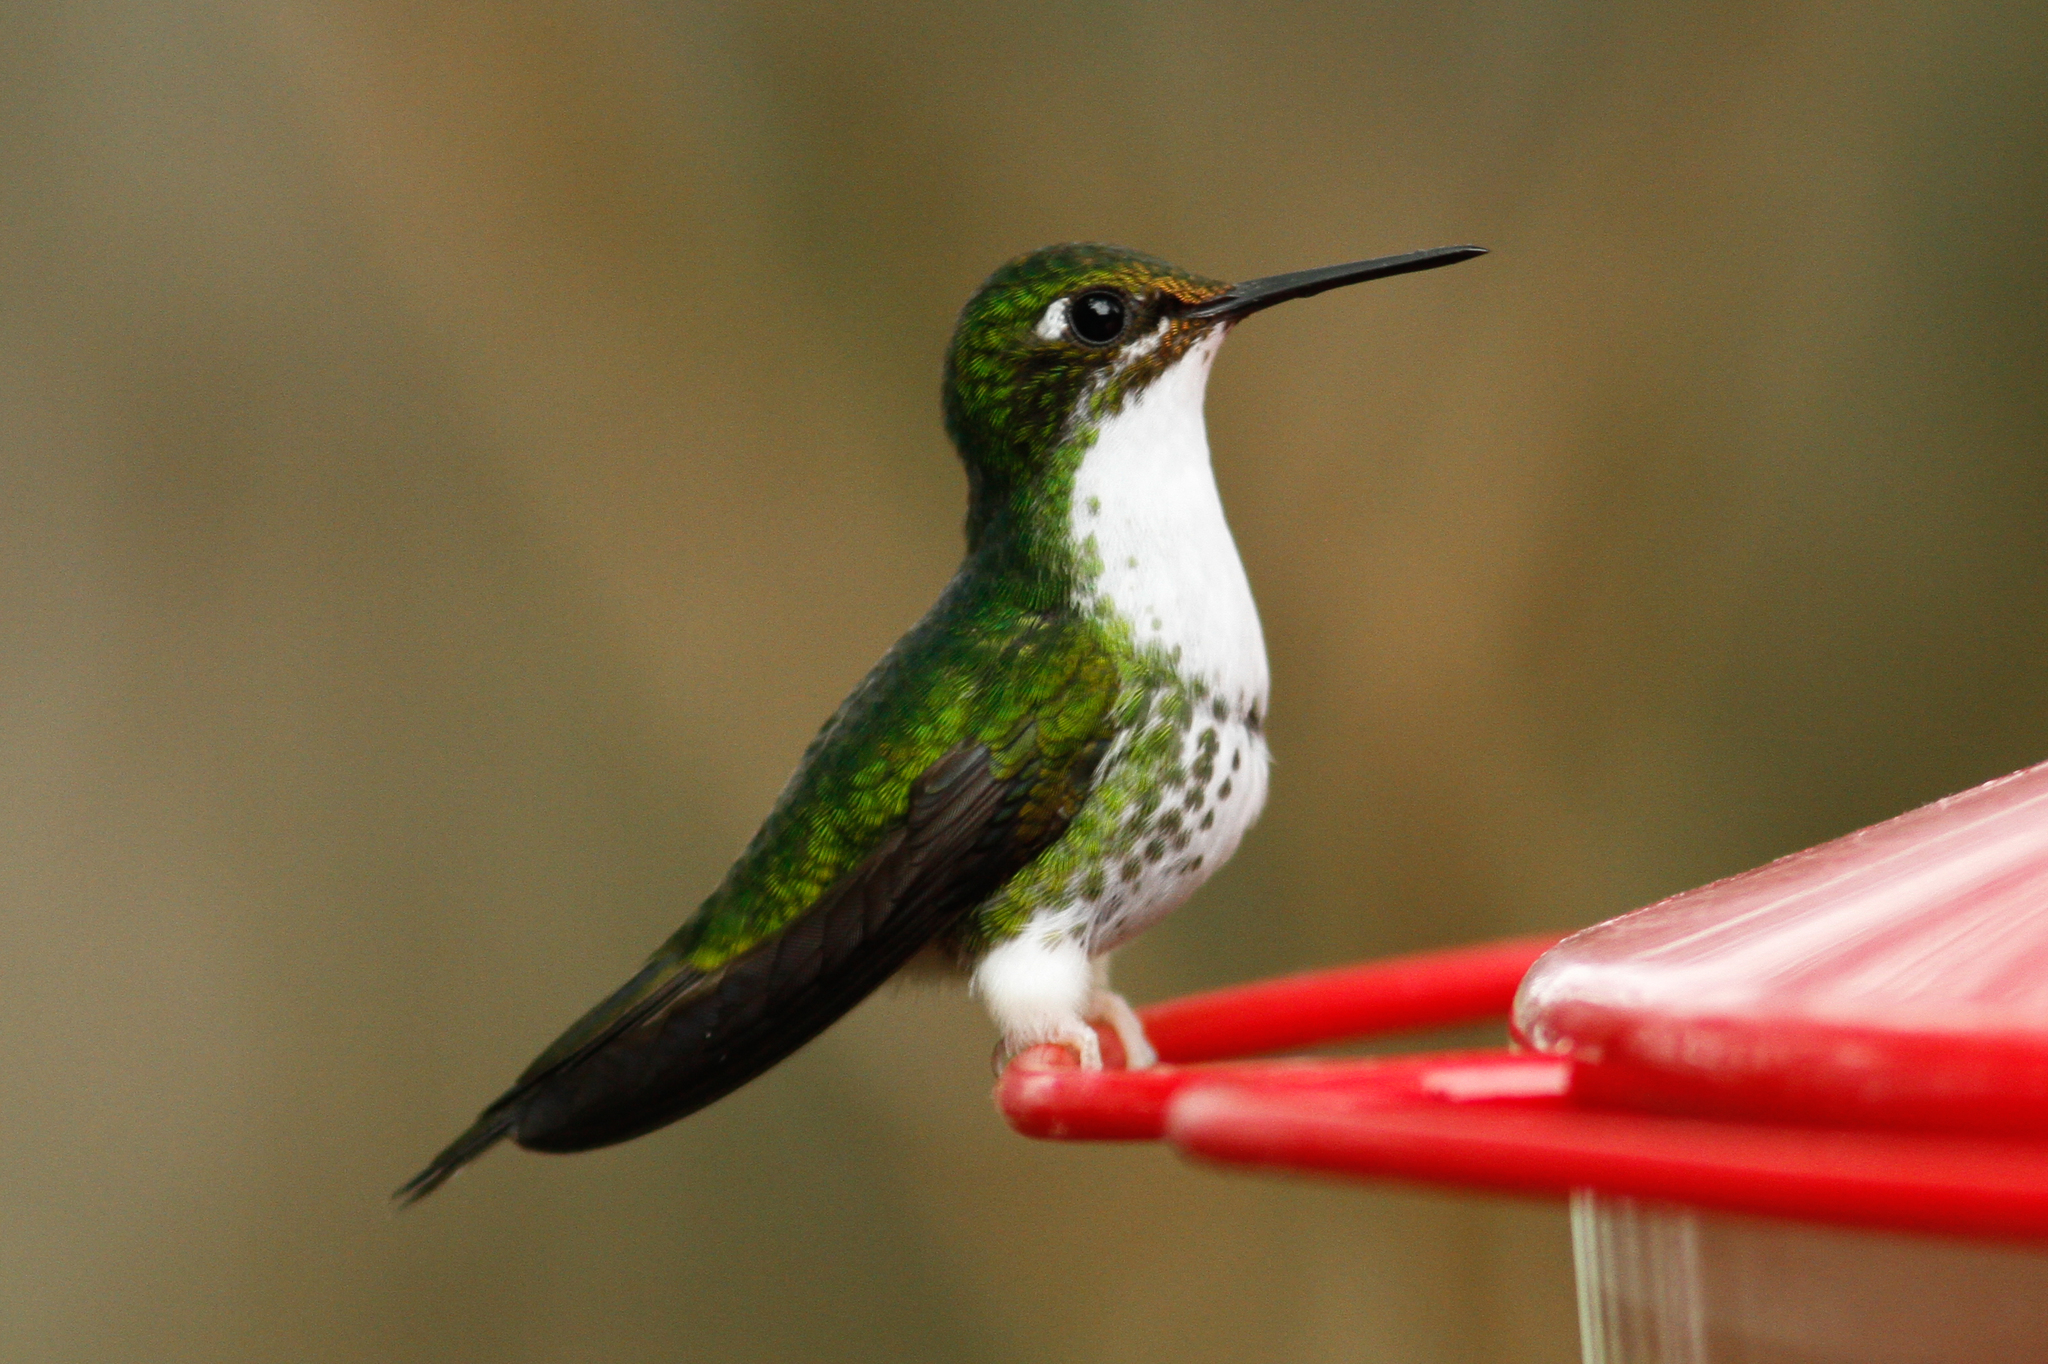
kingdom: Animalia
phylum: Chordata
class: Aves
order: Apodiformes
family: Trochilidae
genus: Ocreatus
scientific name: Ocreatus underwoodii
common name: Booted racket-tail
